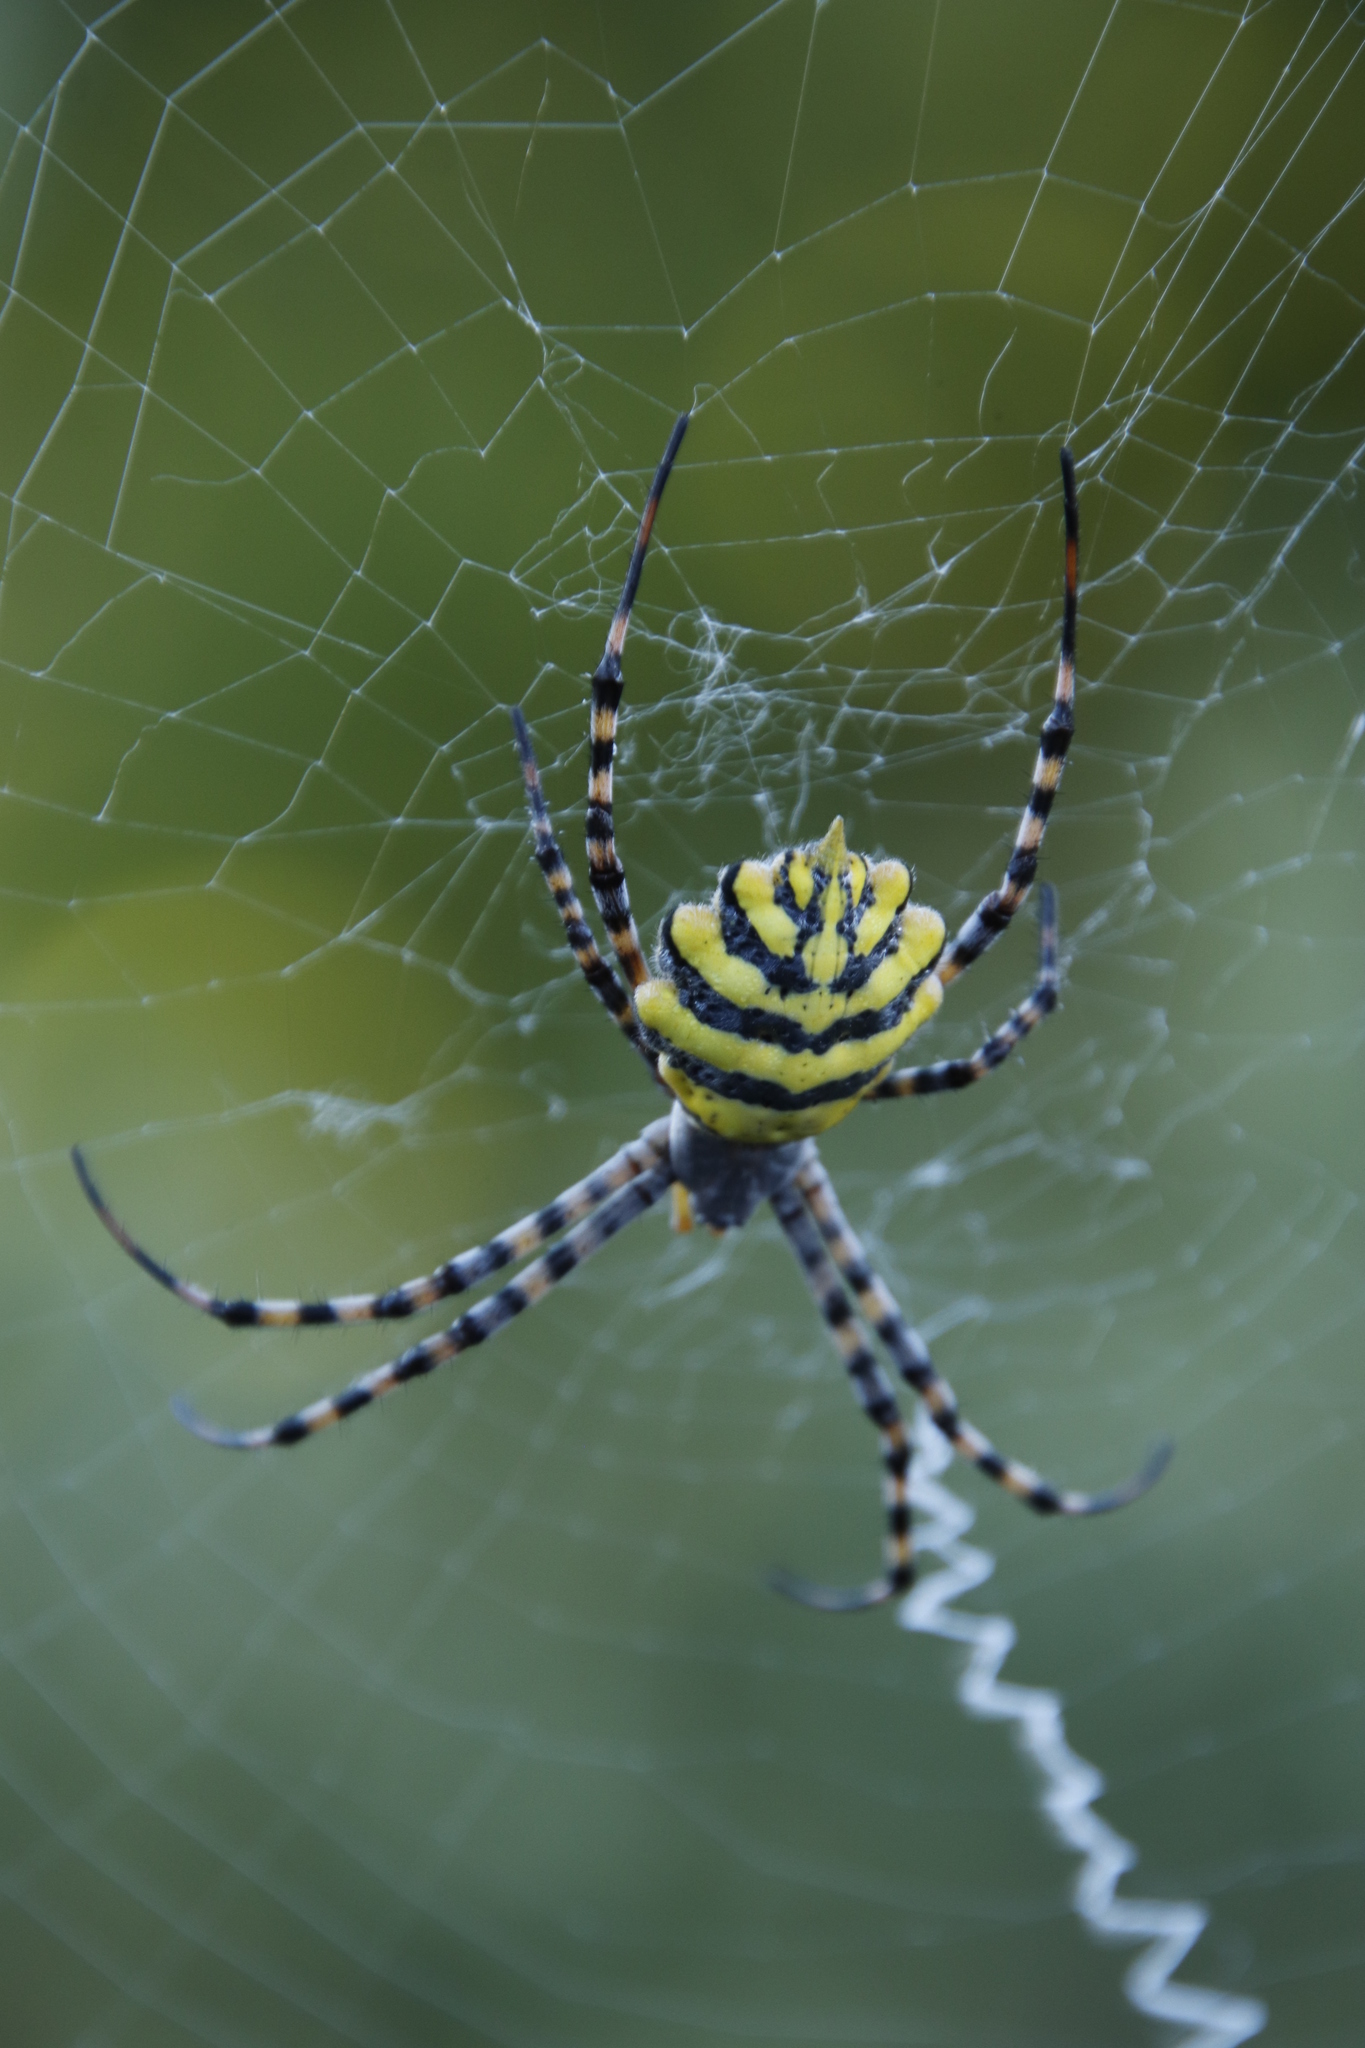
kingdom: Animalia
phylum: Arthropoda
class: Arachnida
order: Araneae
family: Araneidae
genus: Argiope
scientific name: Argiope australis
